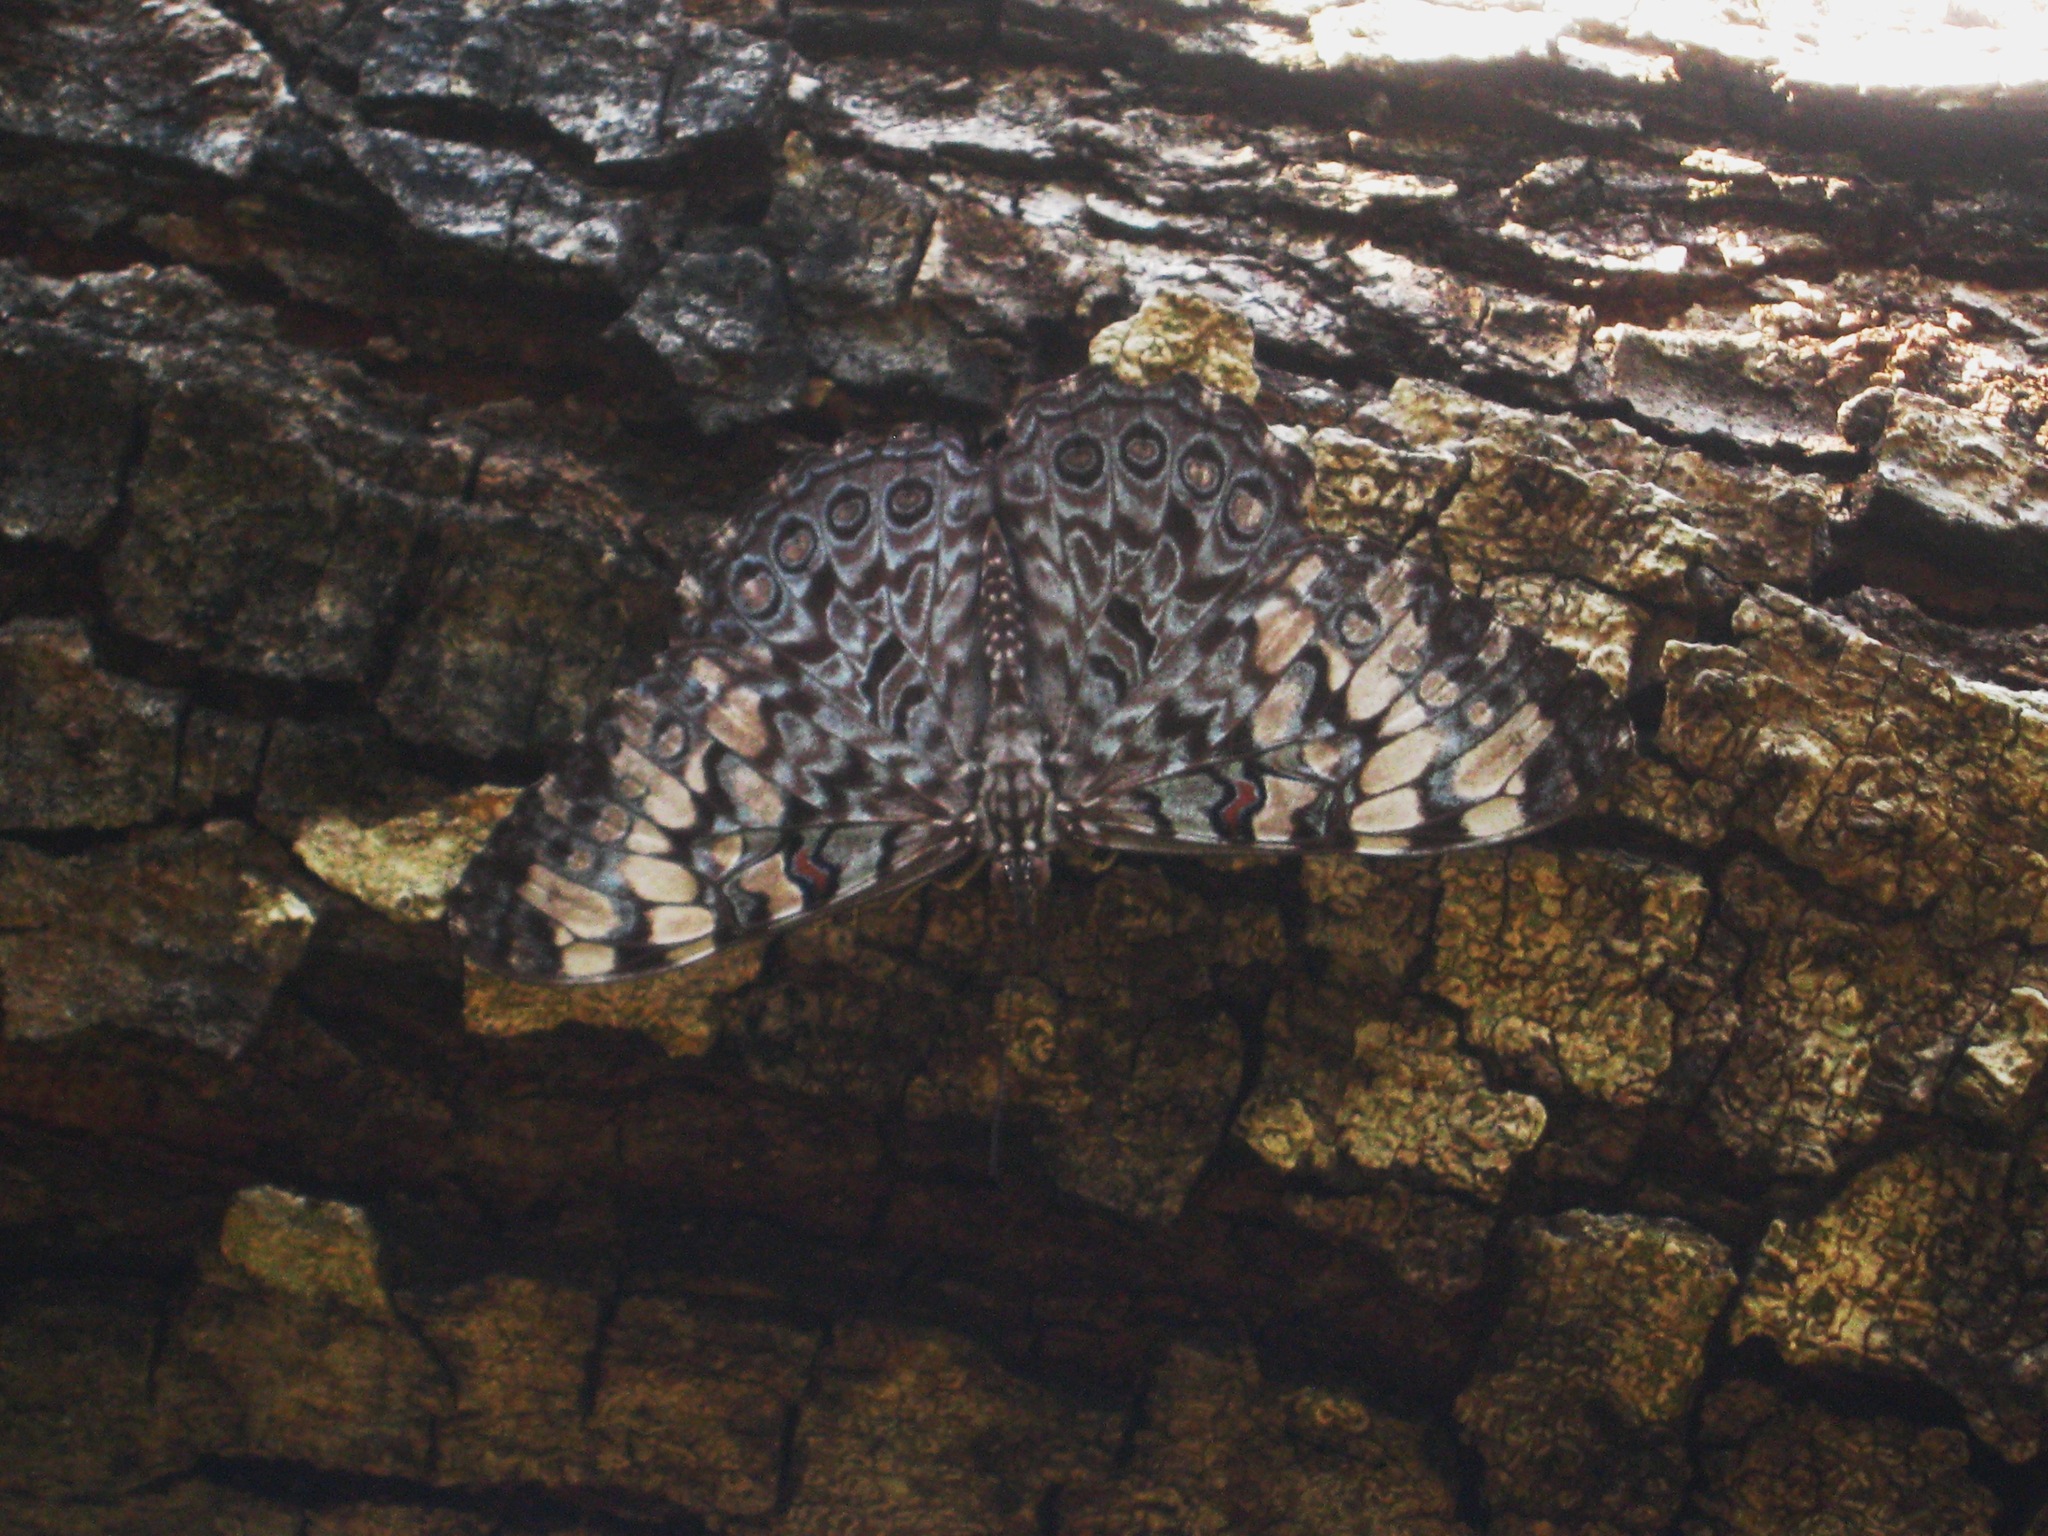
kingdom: Animalia
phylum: Arthropoda
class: Insecta
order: Lepidoptera
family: Nymphalidae
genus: Hamadryas
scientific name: Hamadryas guatemalena
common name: Guatemalan cracker
